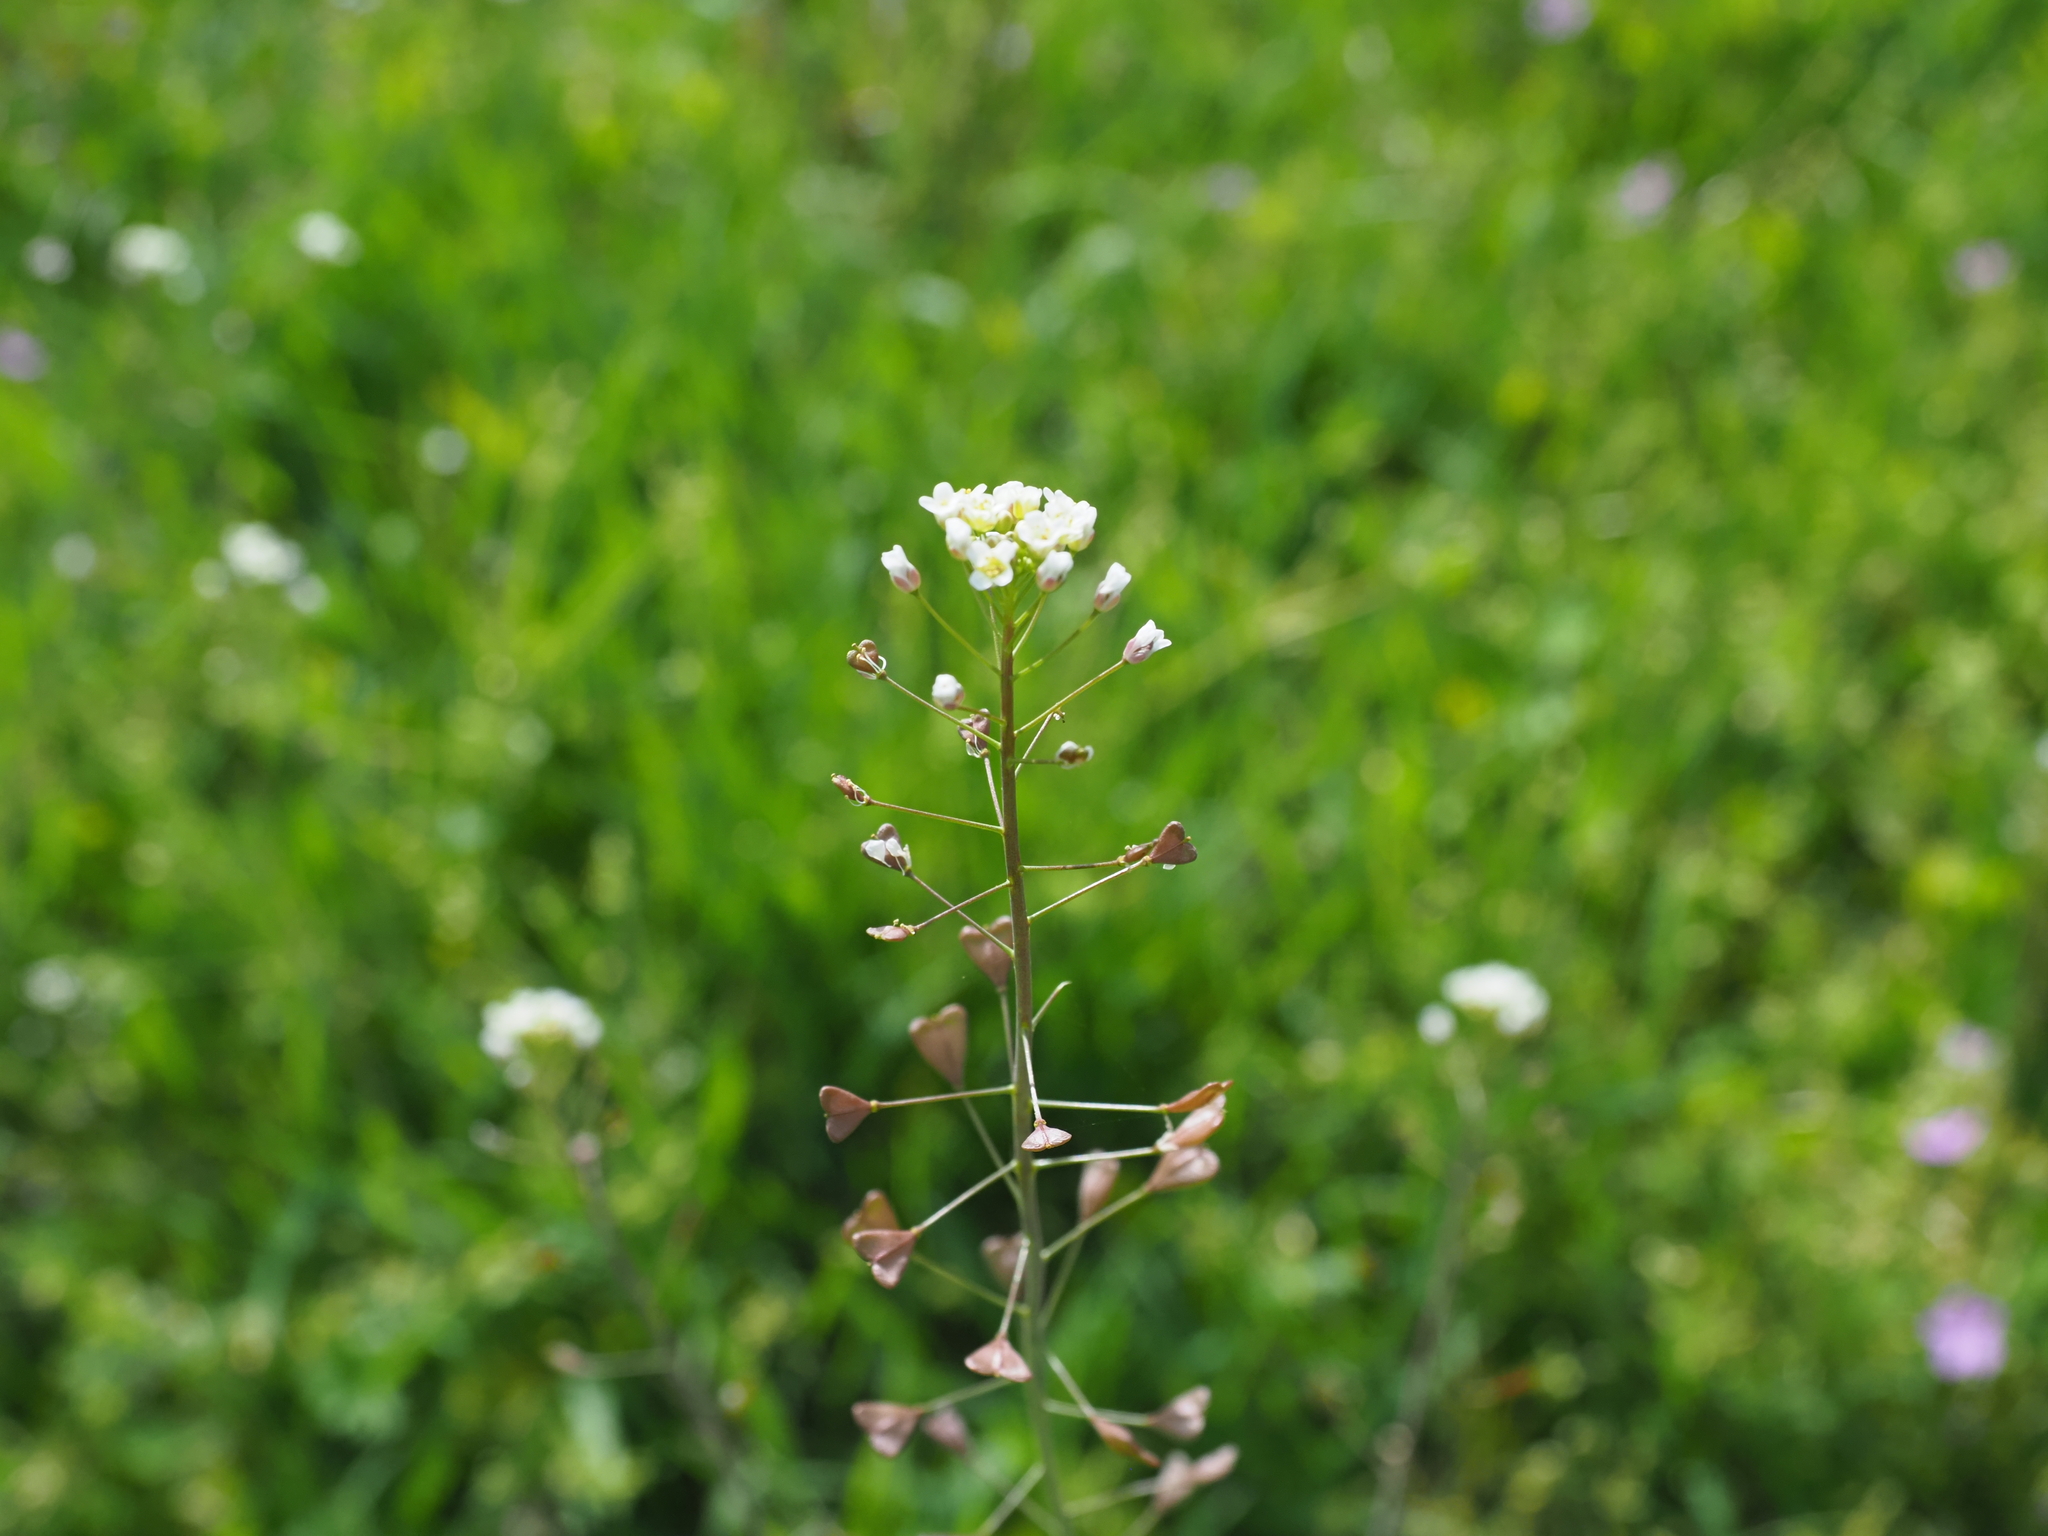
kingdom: Plantae
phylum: Tracheophyta
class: Magnoliopsida
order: Brassicales
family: Brassicaceae
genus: Capsella
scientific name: Capsella bursa-pastoris
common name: Shepherd's purse
